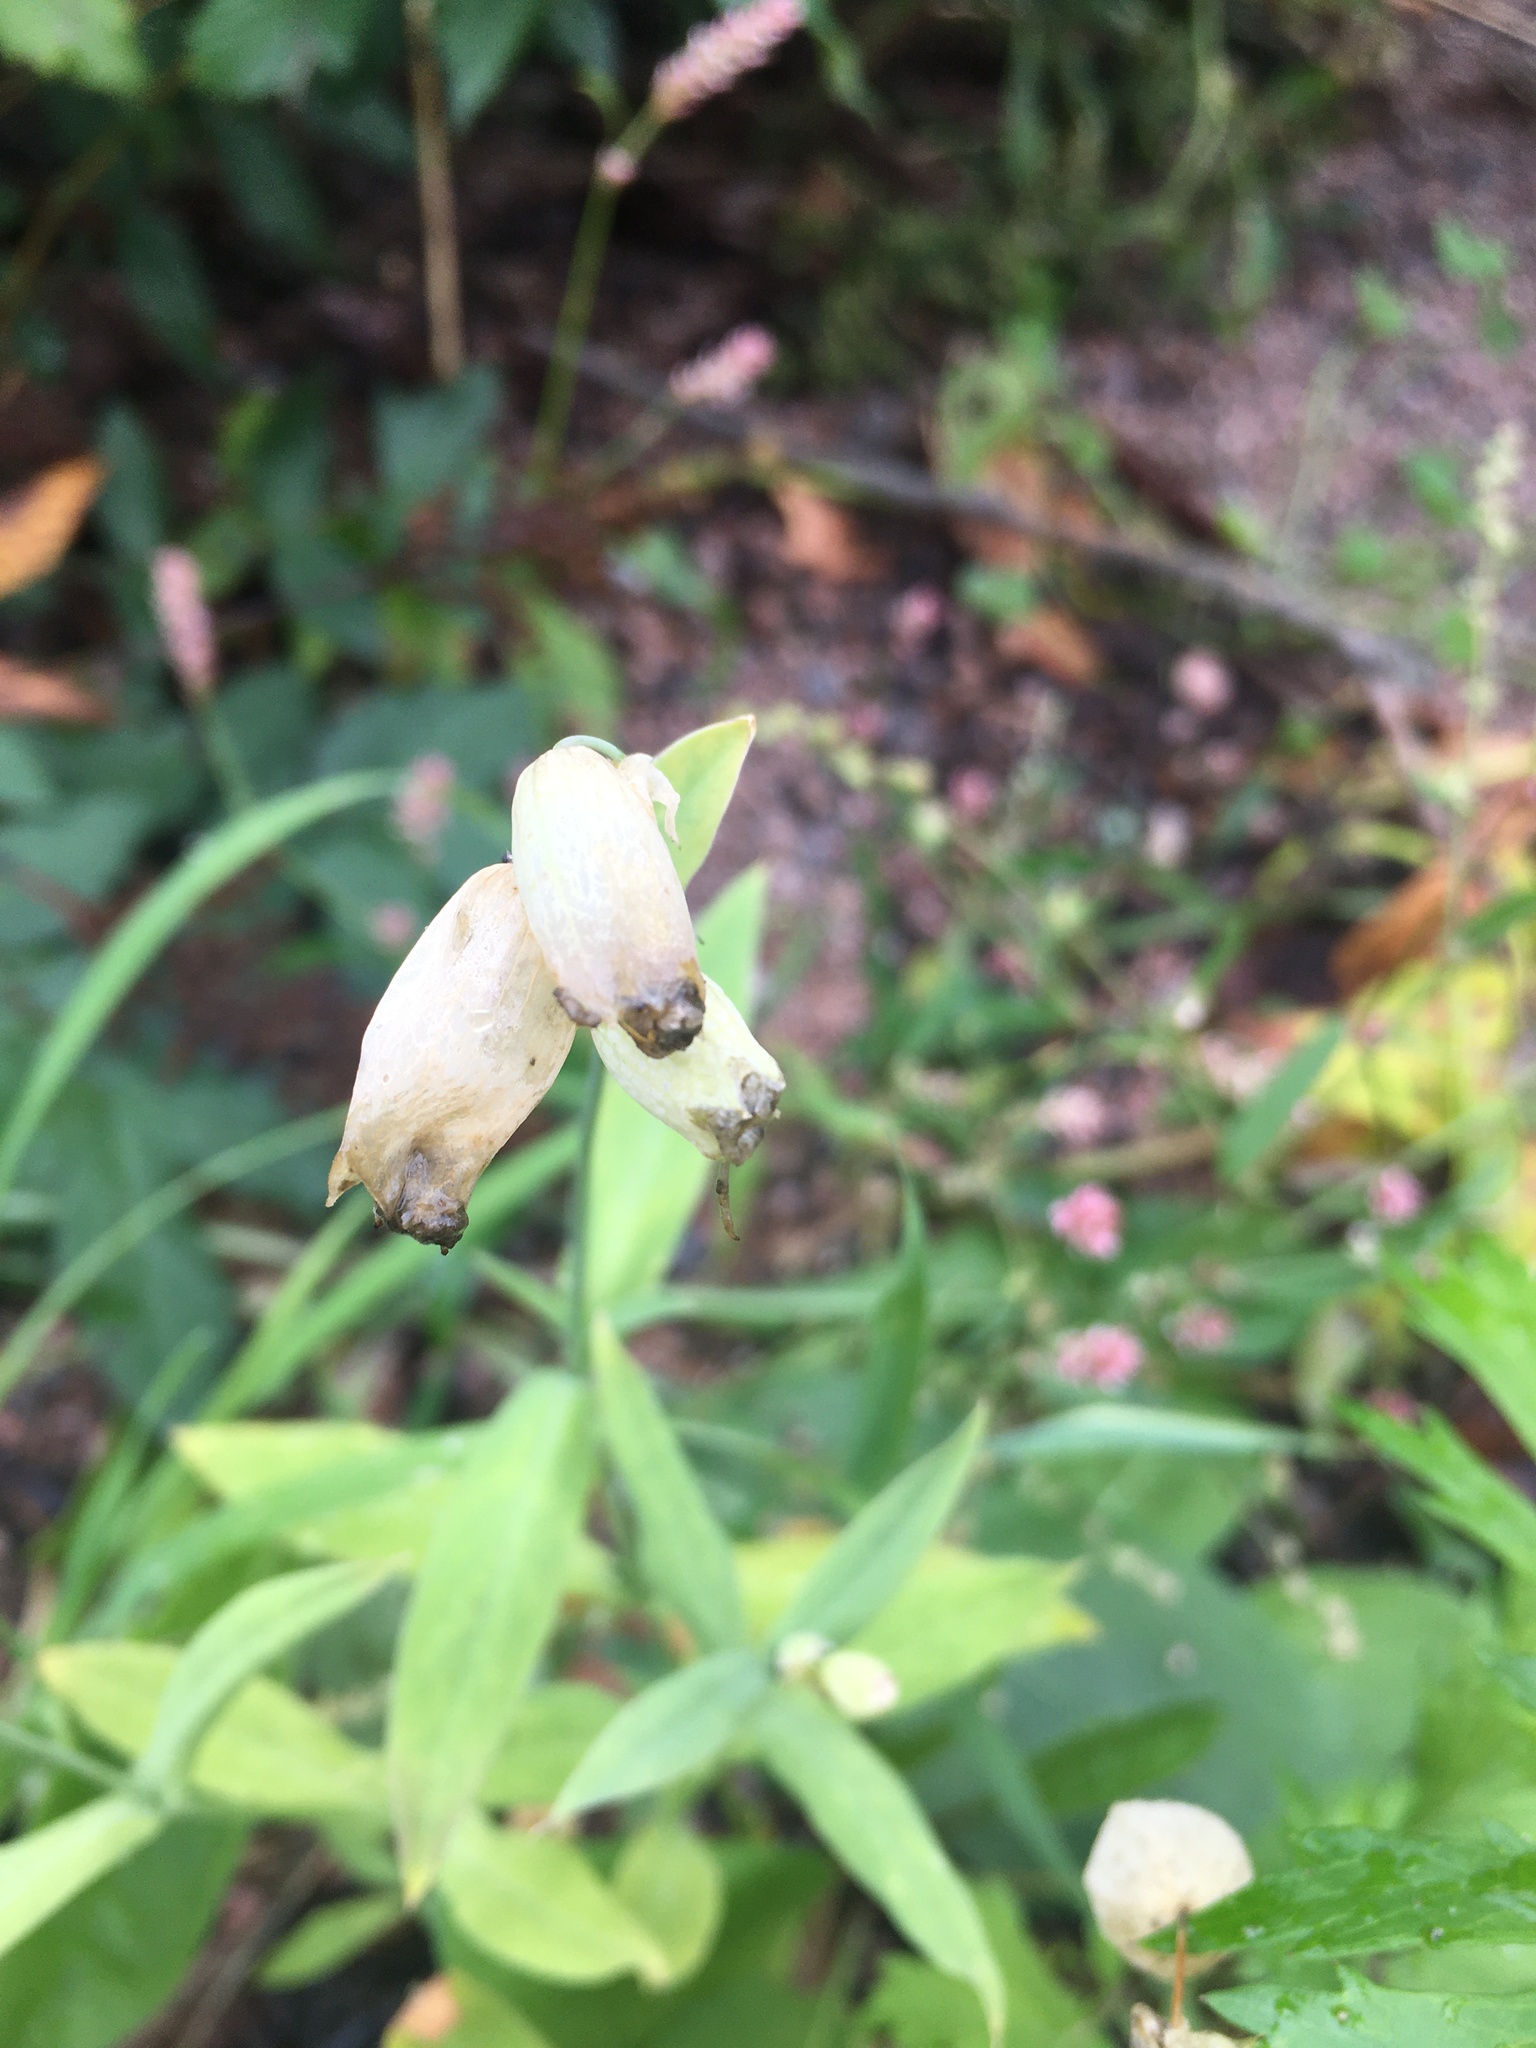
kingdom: Plantae
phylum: Tracheophyta
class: Magnoliopsida
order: Caryophyllales
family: Caryophyllaceae
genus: Silene
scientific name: Silene vulgaris
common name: Bladder campion
